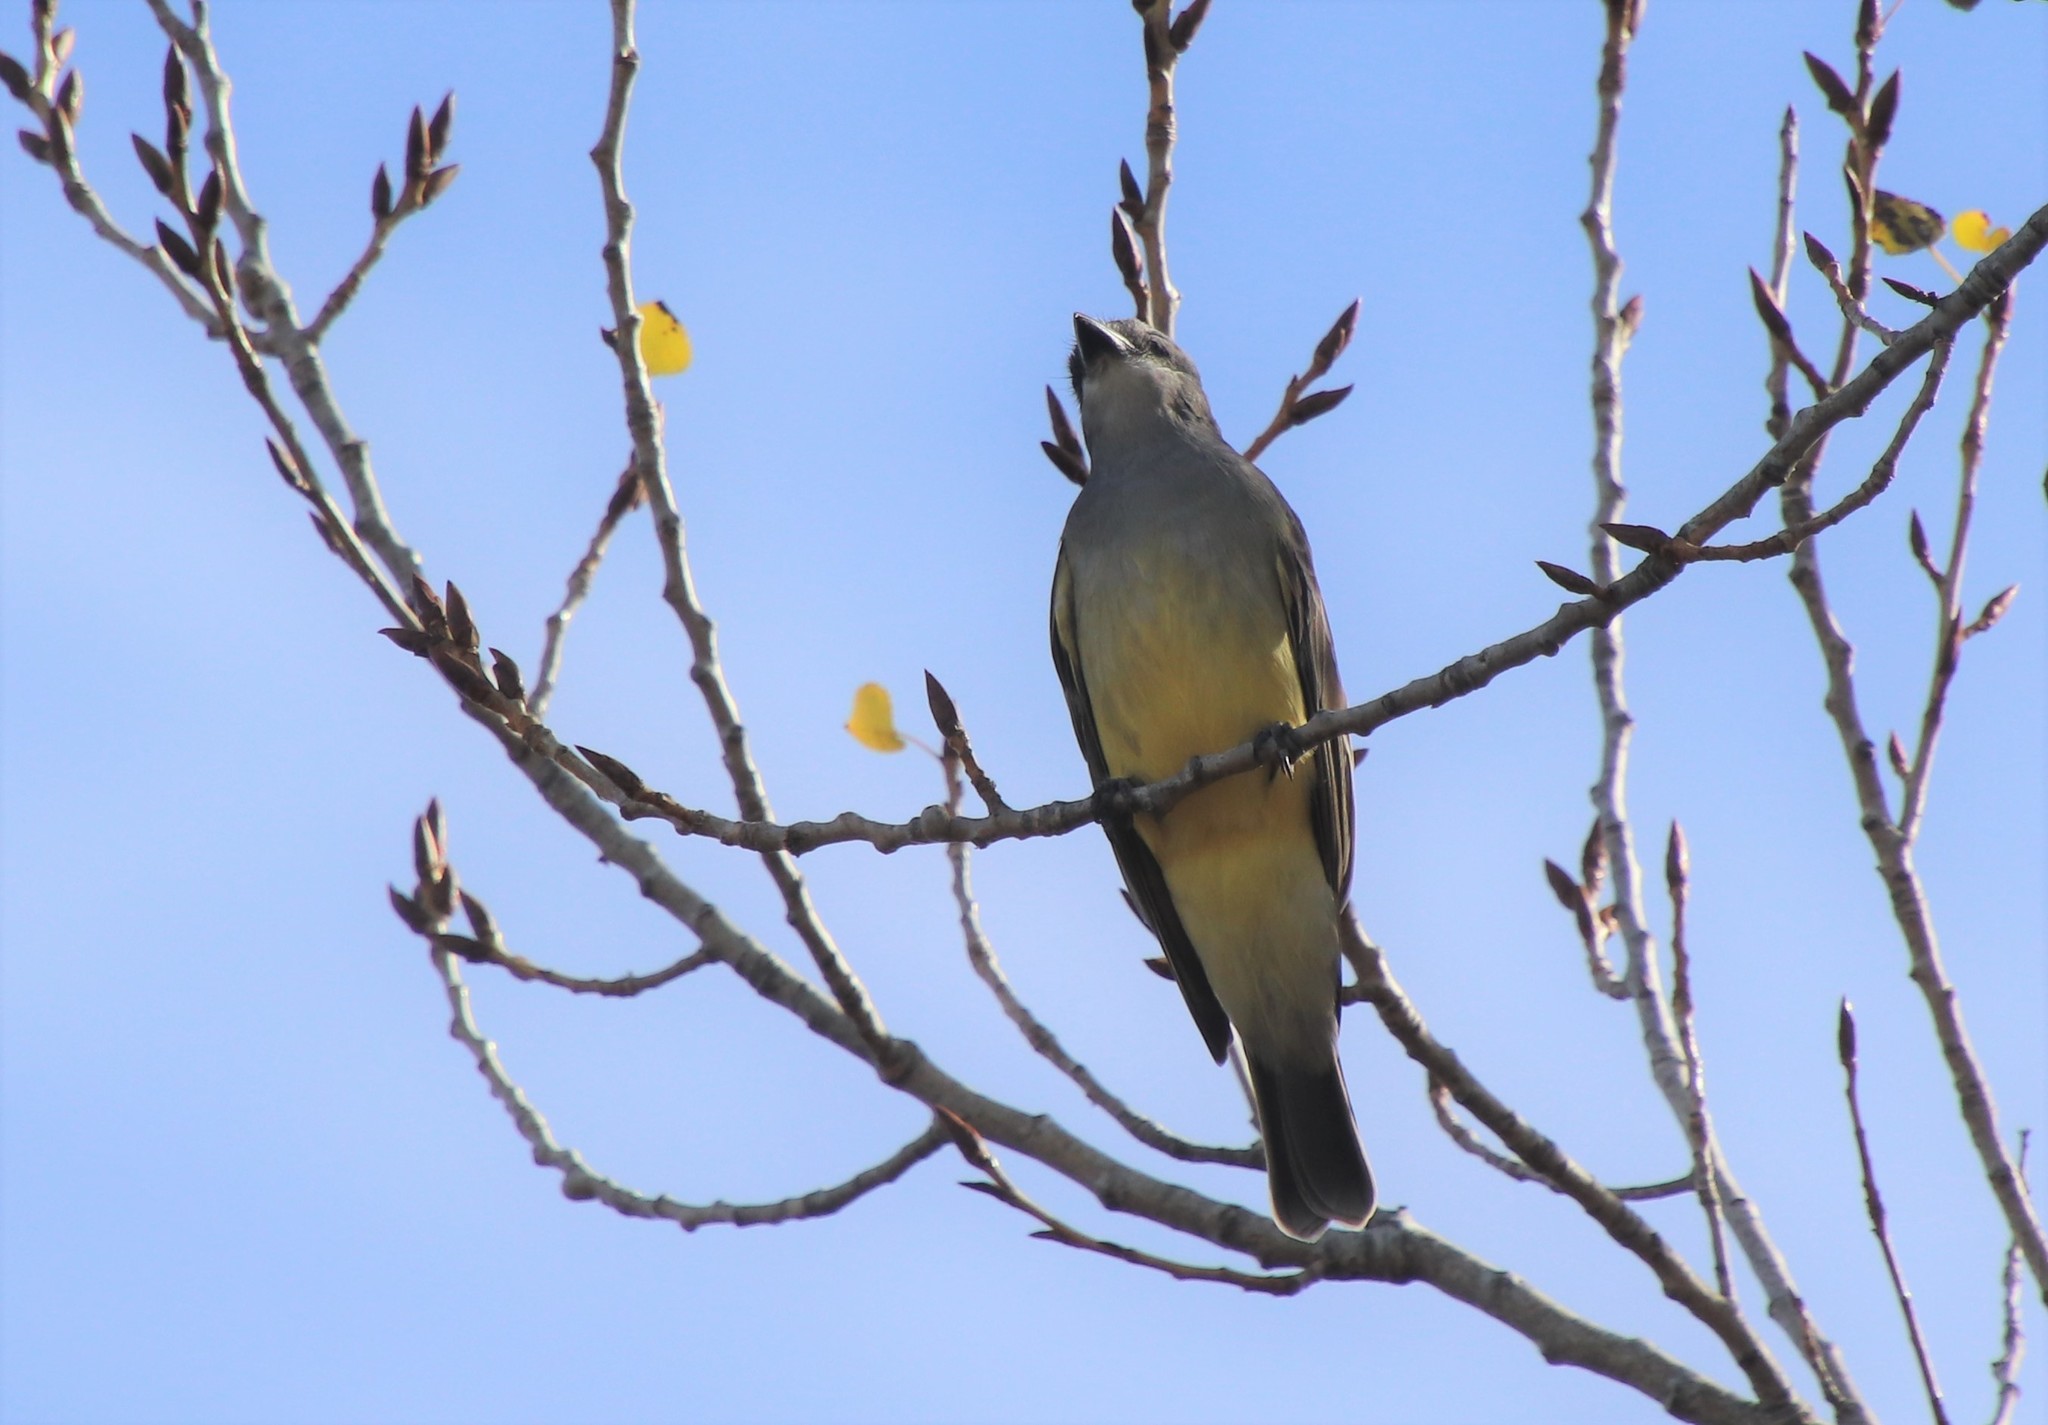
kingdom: Animalia
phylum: Chordata
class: Aves
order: Passeriformes
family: Tyrannidae
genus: Tyrannus
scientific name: Tyrannus vociferans
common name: Cassin's kingbird
